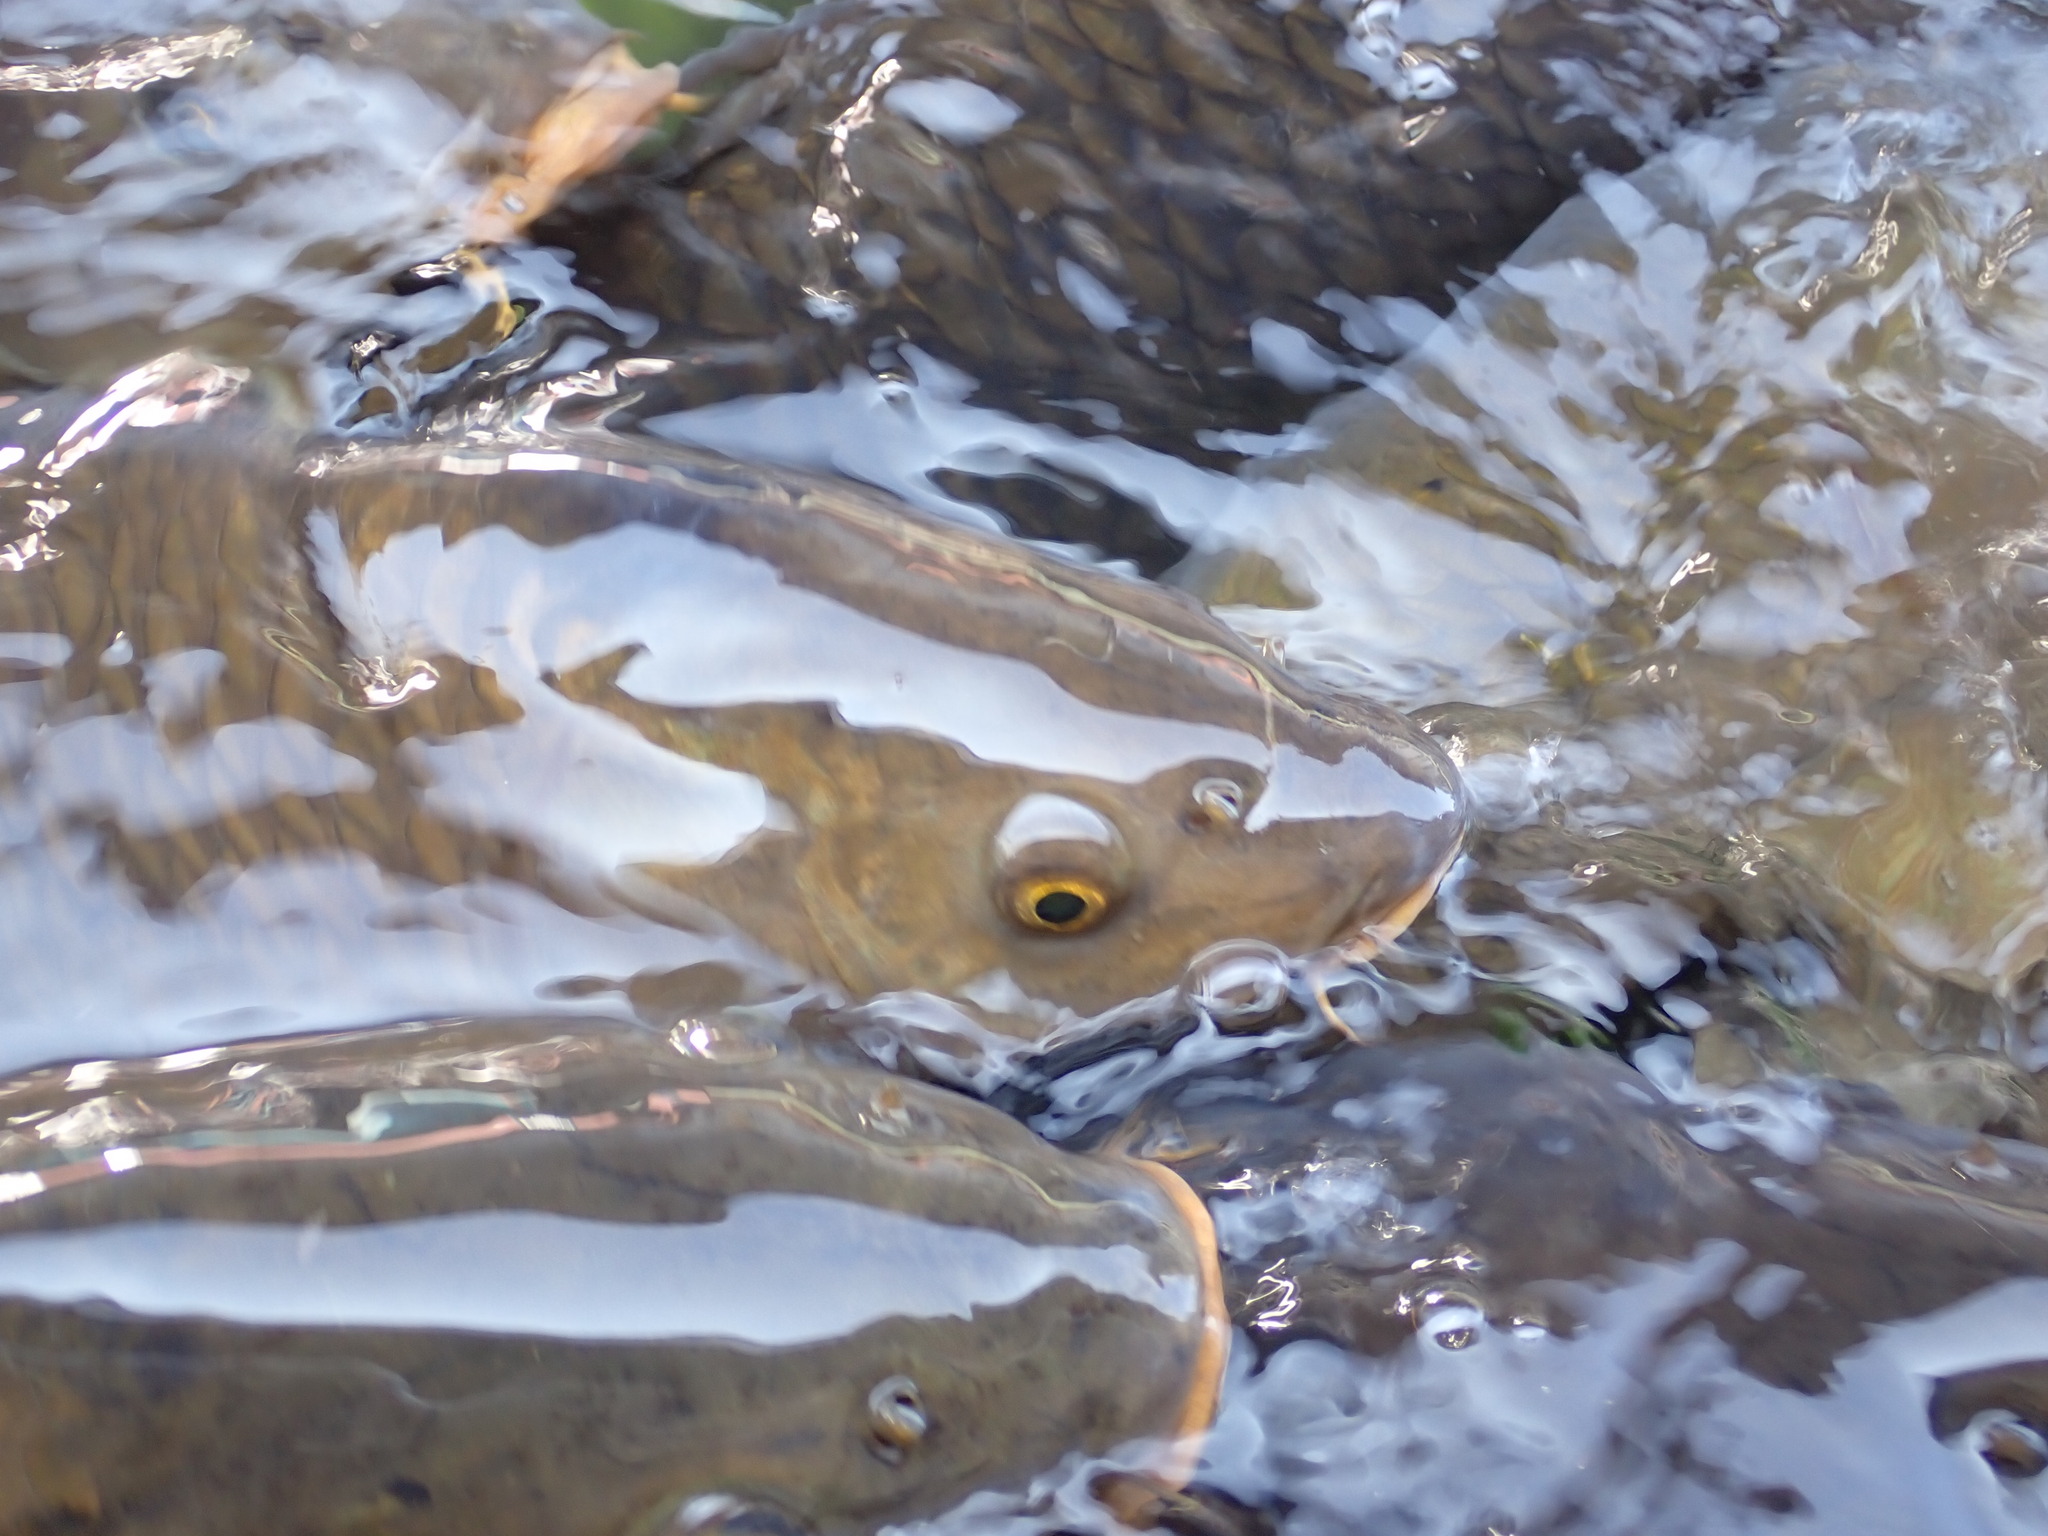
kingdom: Animalia
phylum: Chordata
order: Cypriniformes
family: Cyprinidae
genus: Cyprinus
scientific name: Cyprinus carpio
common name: Common carp
